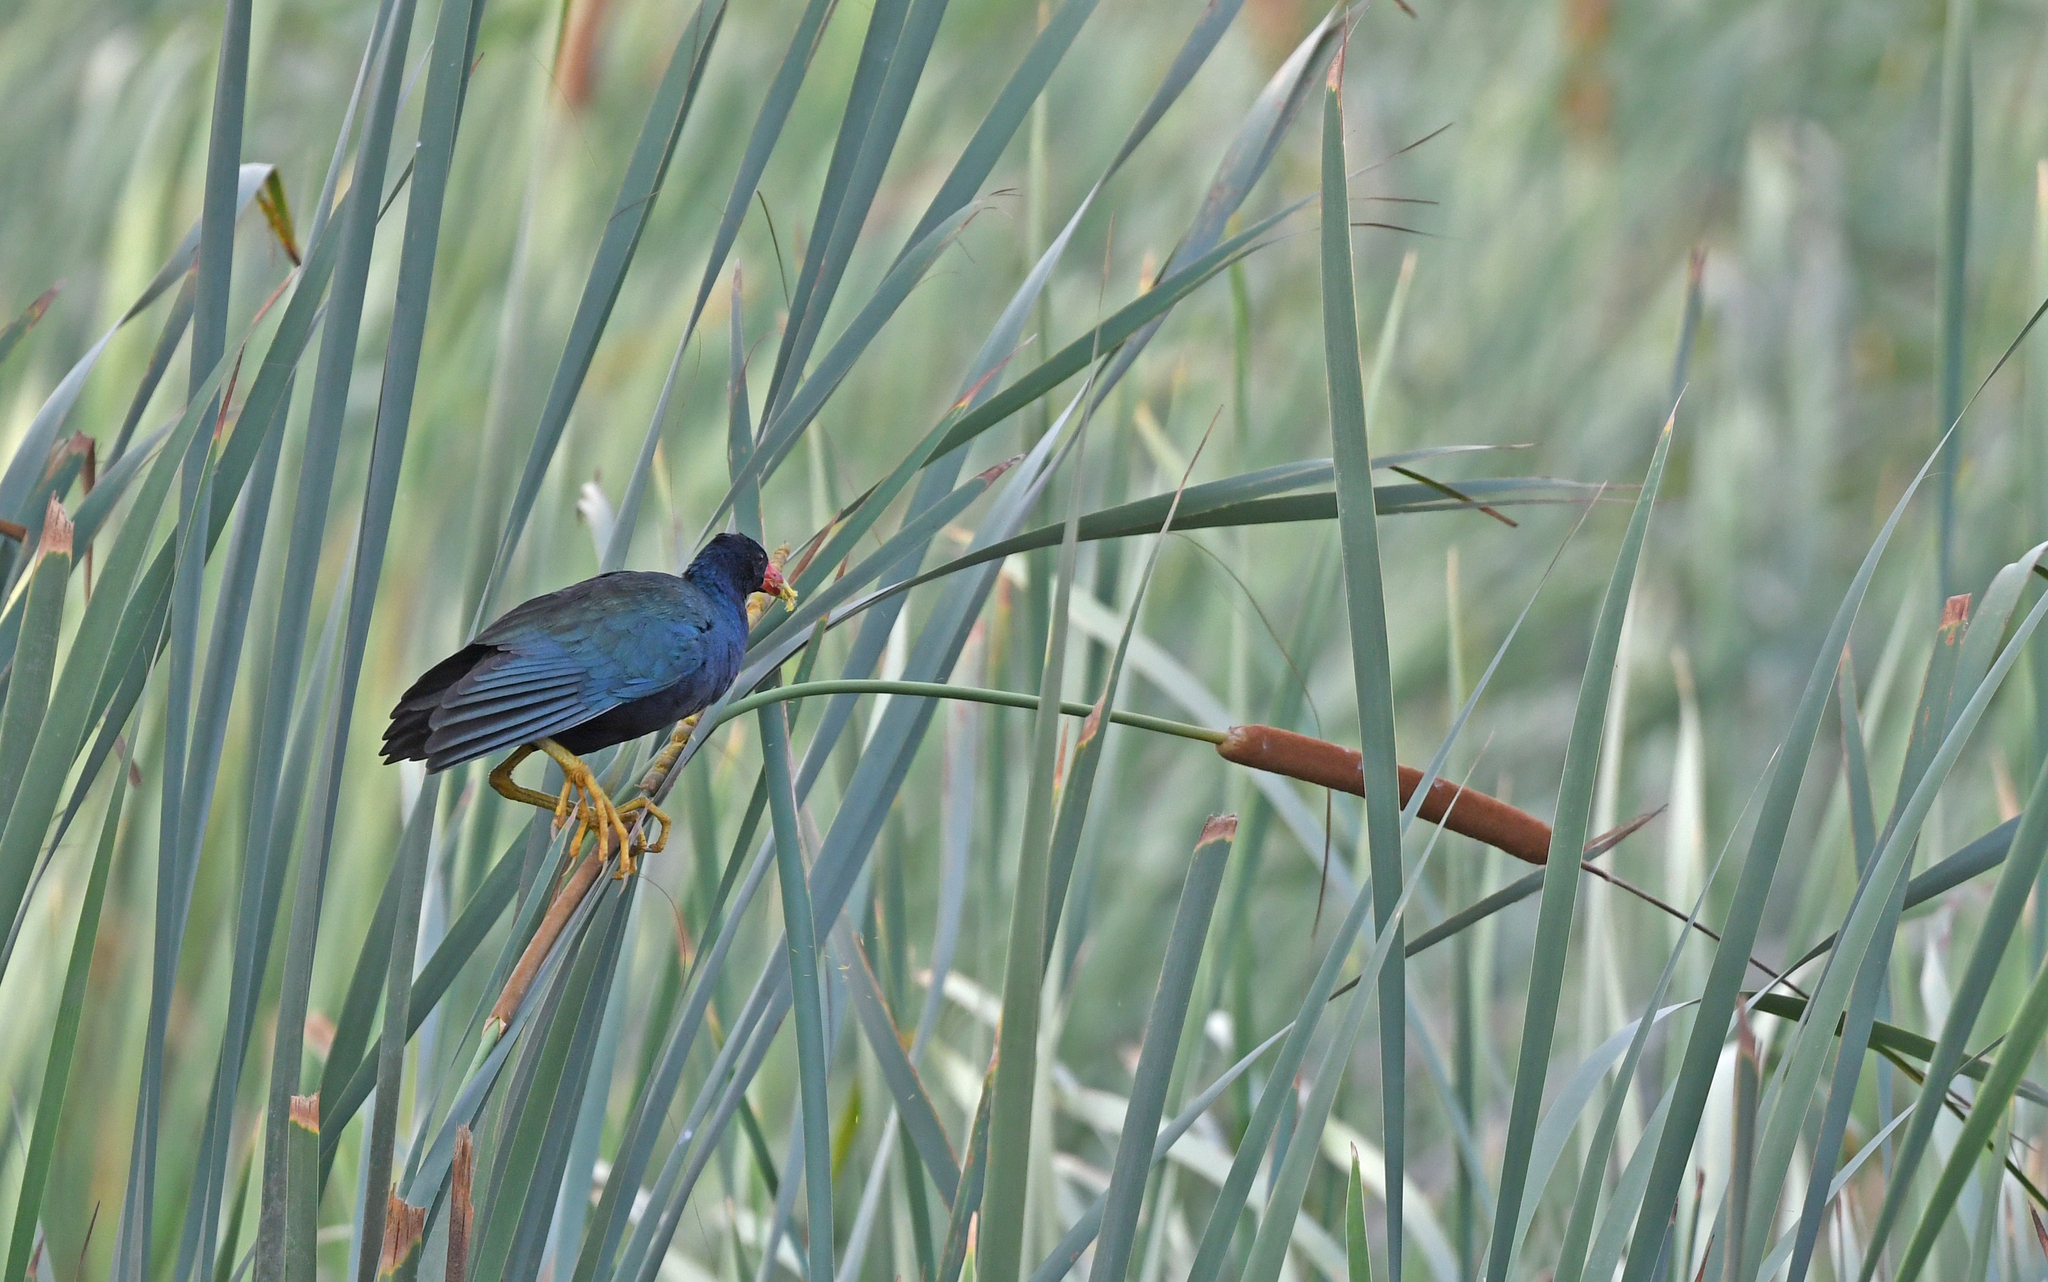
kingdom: Animalia
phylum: Chordata
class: Aves
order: Gruiformes
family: Rallidae
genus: Porphyrio
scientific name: Porphyrio martinica
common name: Purple gallinule
